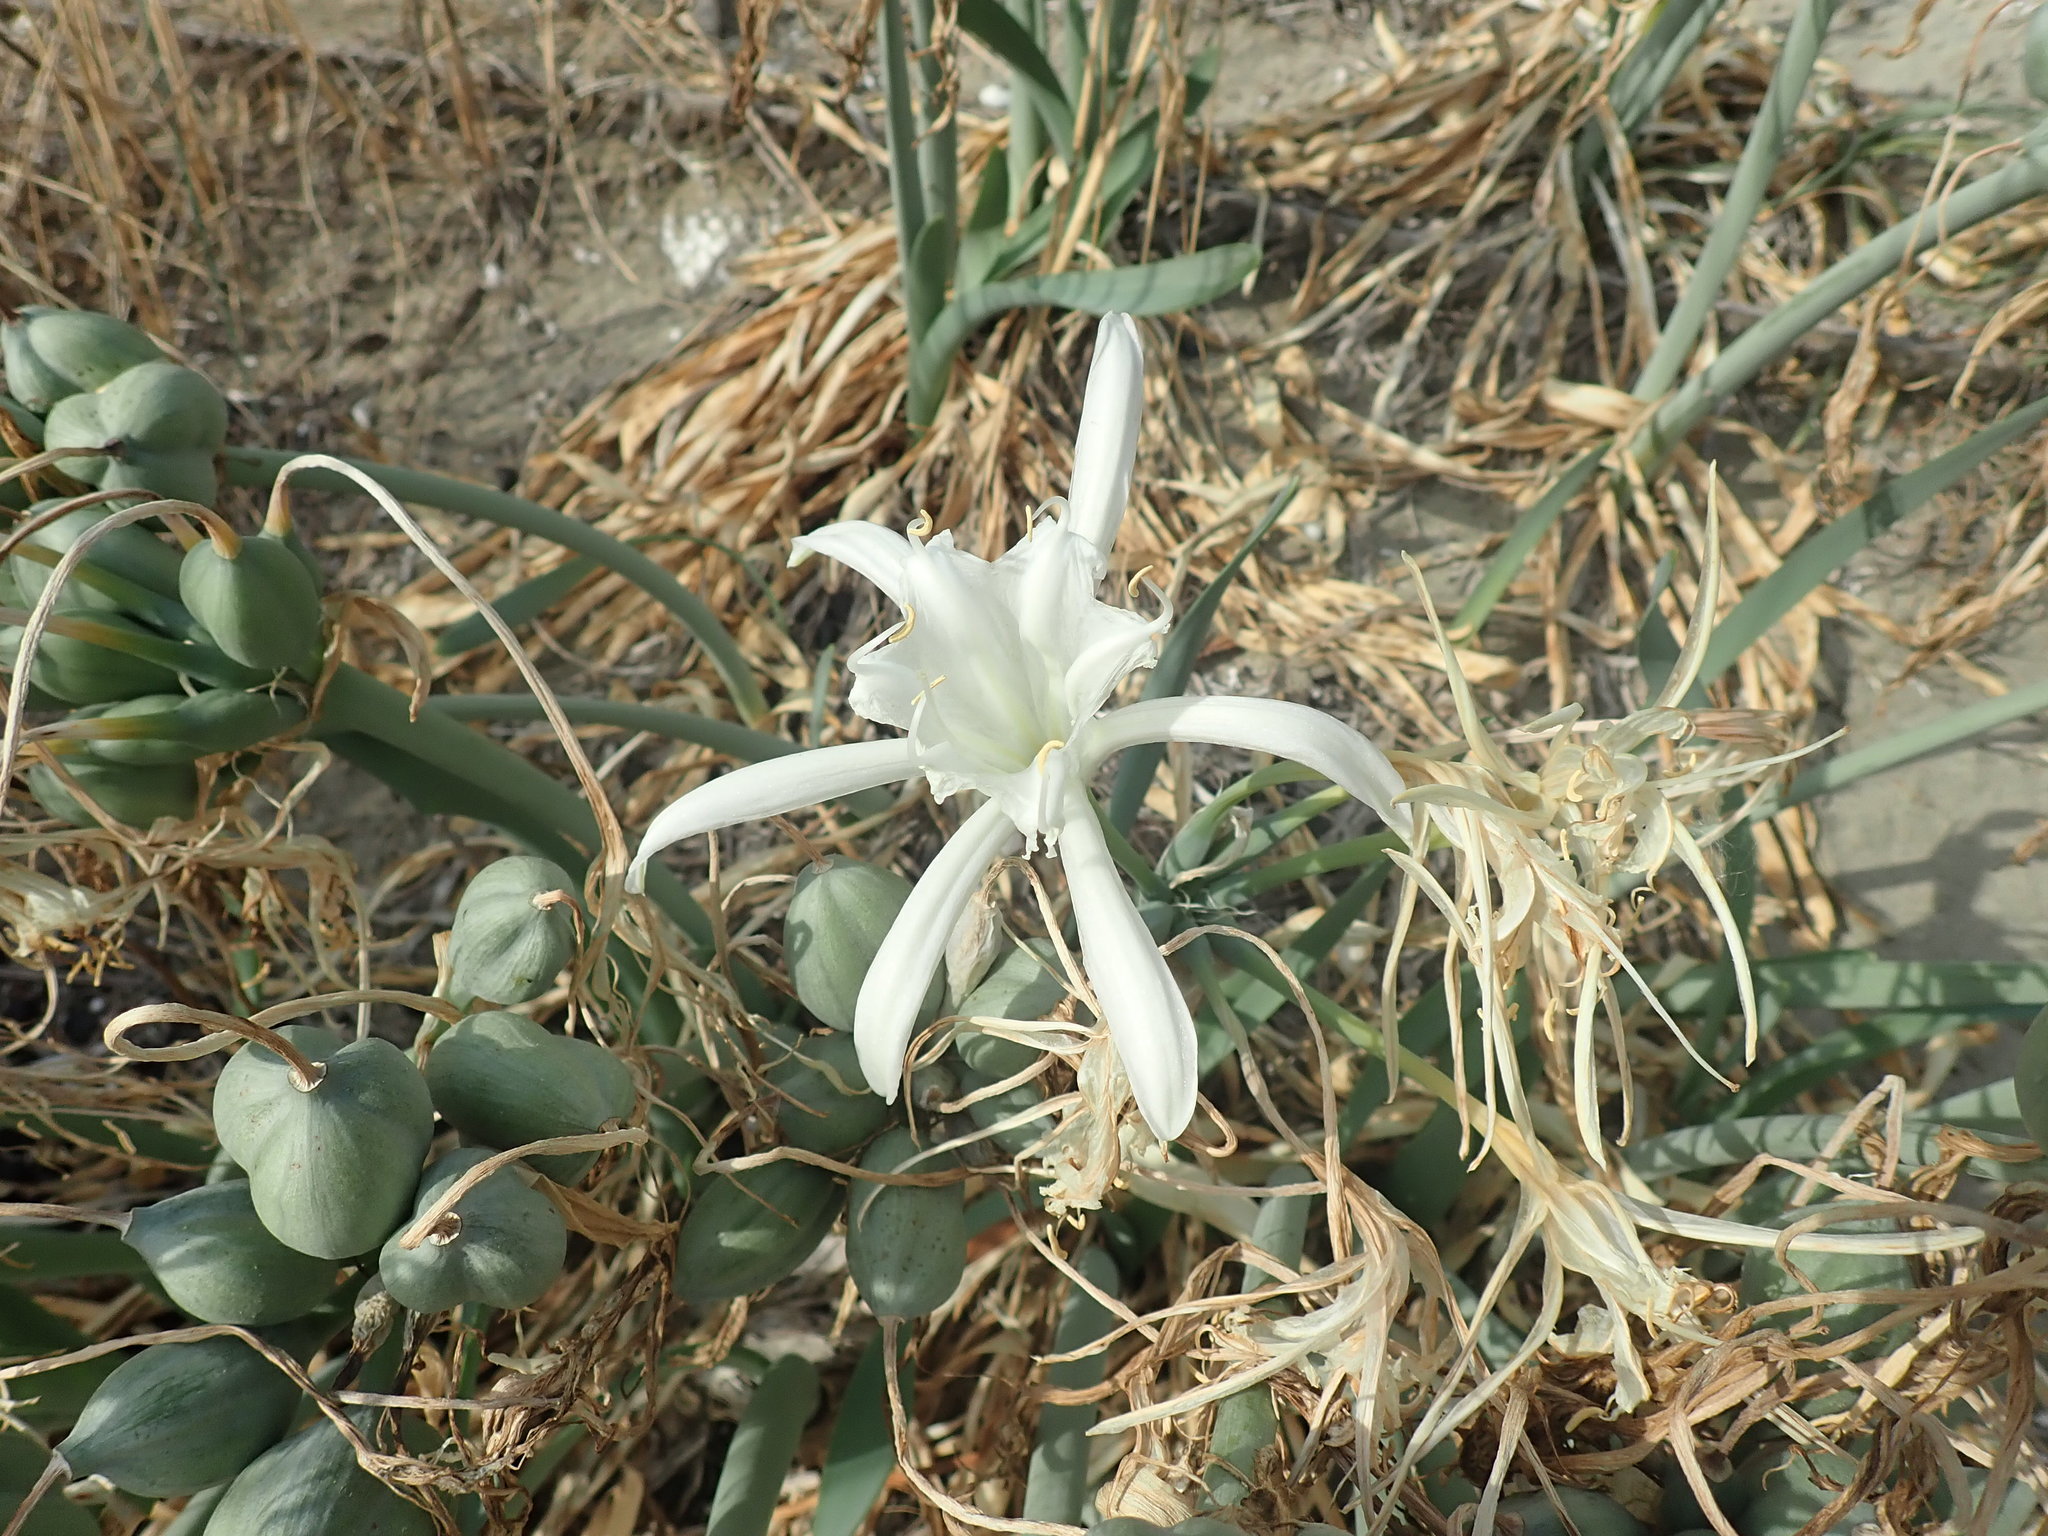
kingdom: Plantae
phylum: Tracheophyta
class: Liliopsida
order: Asparagales
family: Amaryllidaceae
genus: Pancratium
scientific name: Pancratium maritimum
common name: Sea-daffodil
